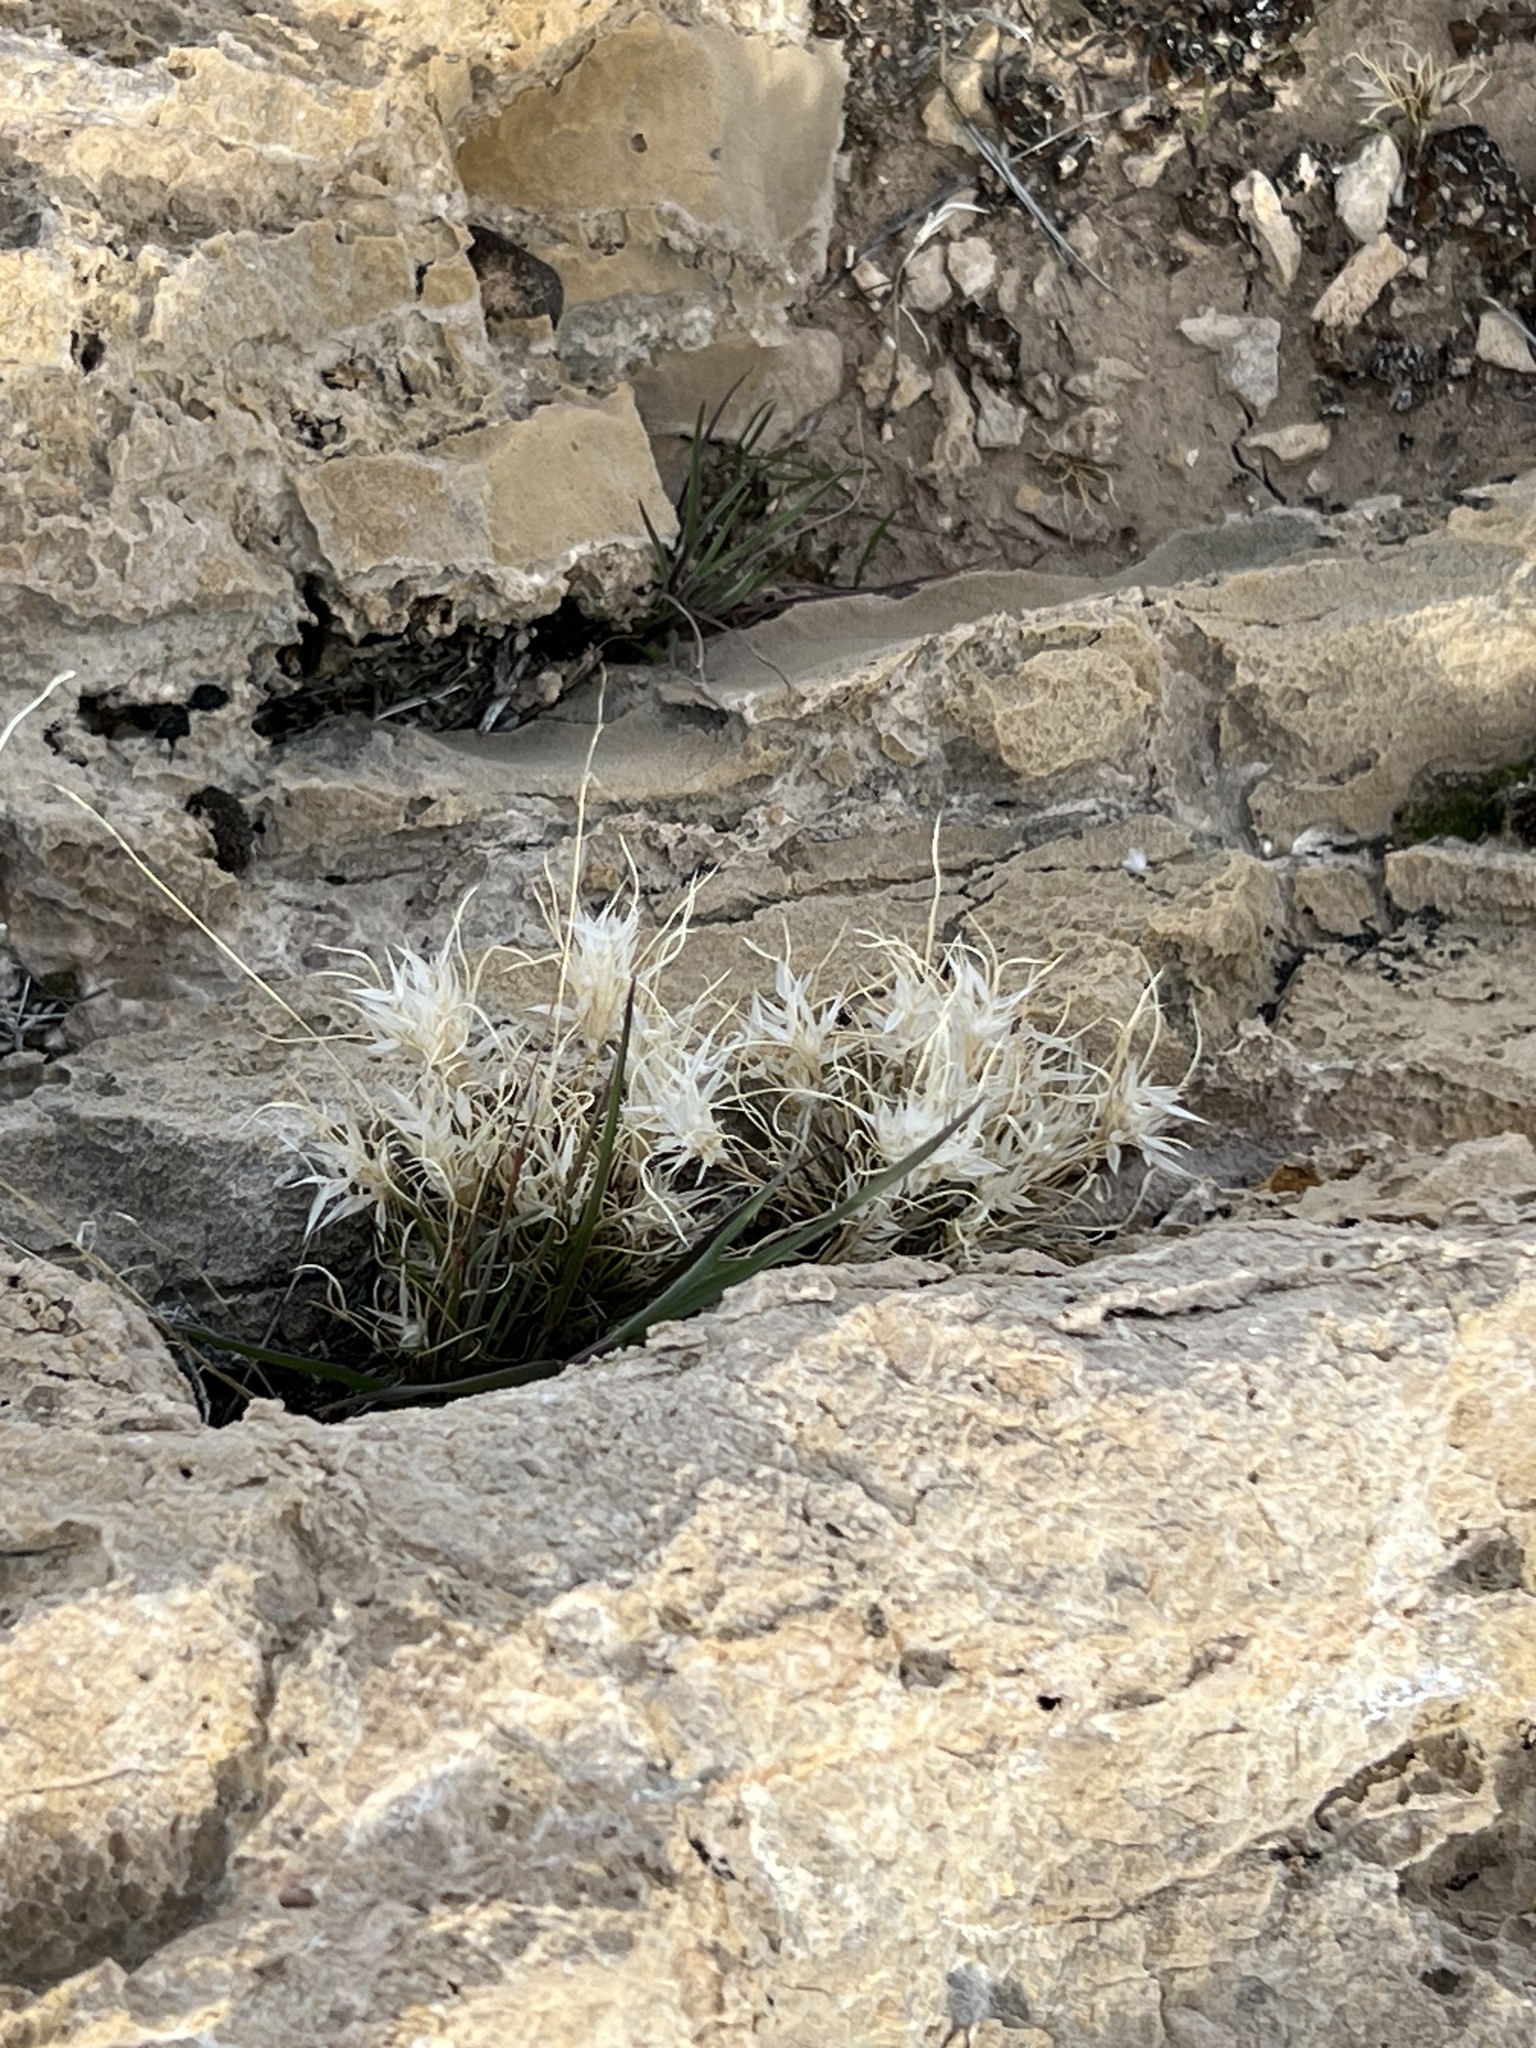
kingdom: Plantae
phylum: Tracheophyta
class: Liliopsida
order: Poales
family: Poaceae
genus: Dasyochloa
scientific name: Dasyochloa pulchella
